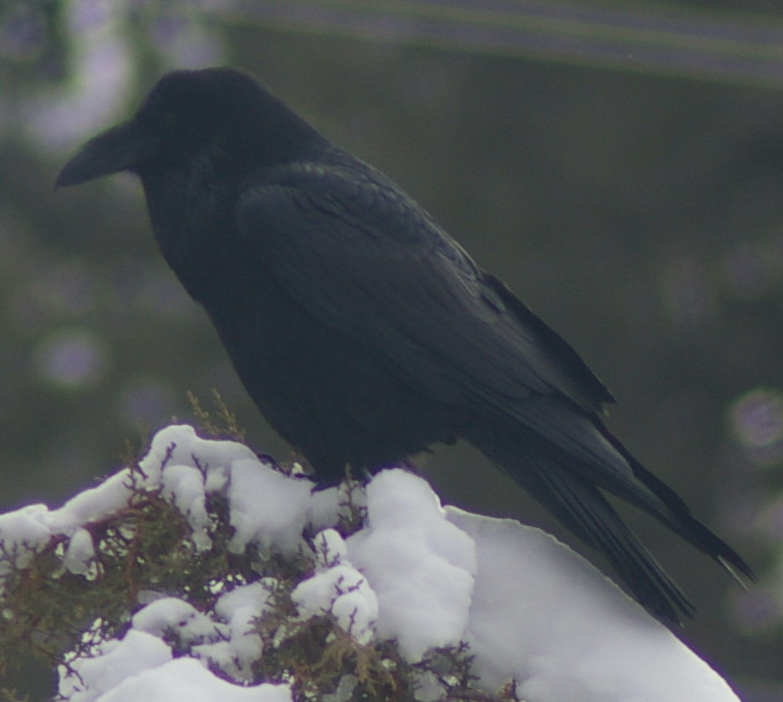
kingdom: Animalia
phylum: Chordata
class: Aves
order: Passeriformes
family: Corvidae
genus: Corvus
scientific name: Corvus corax
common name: Common raven
